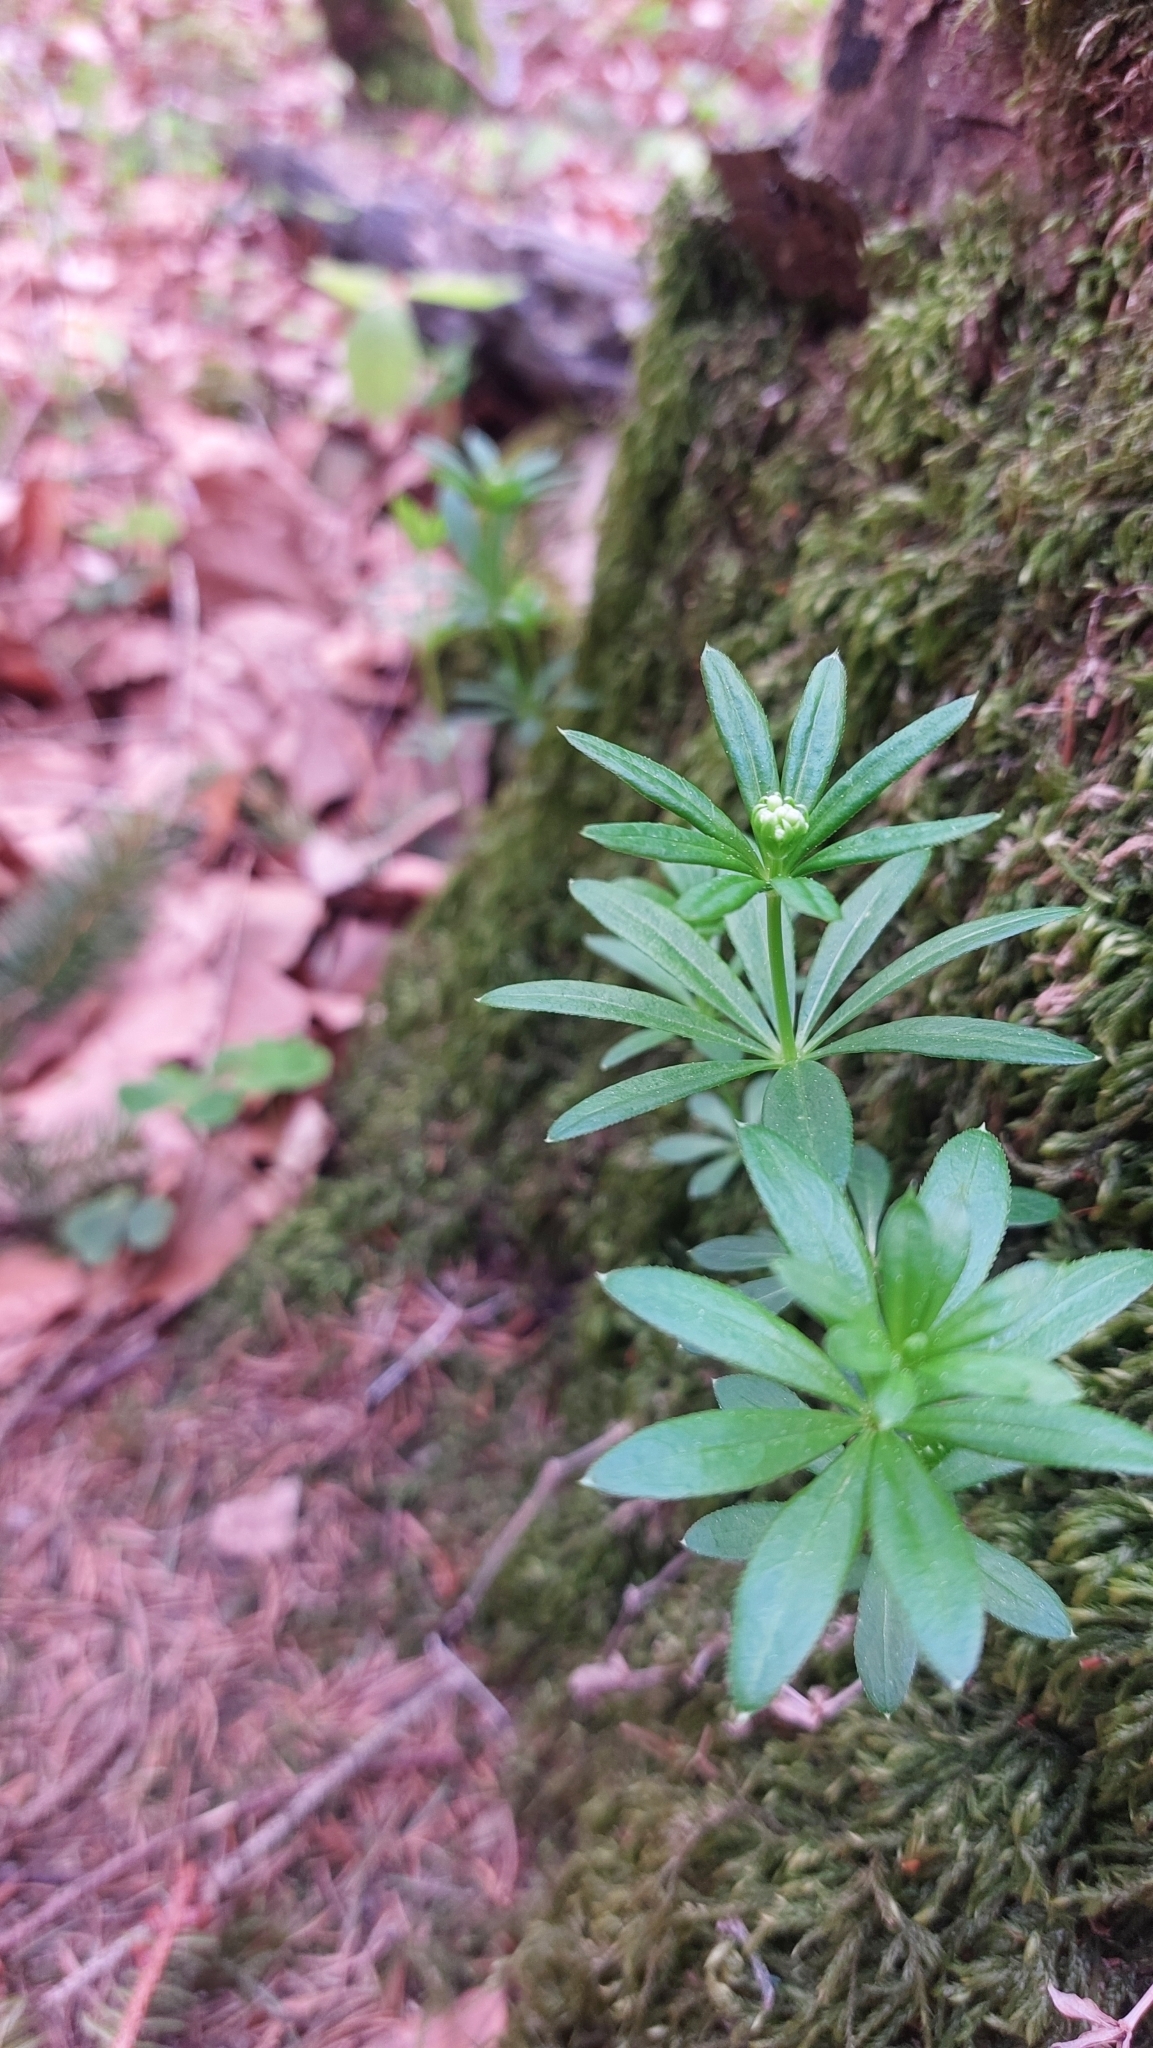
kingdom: Plantae
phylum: Tracheophyta
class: Magnoliopsida
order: Gentianales
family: Rubiaceae
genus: Galium
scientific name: Galium odoratum
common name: Sweet woodruff
